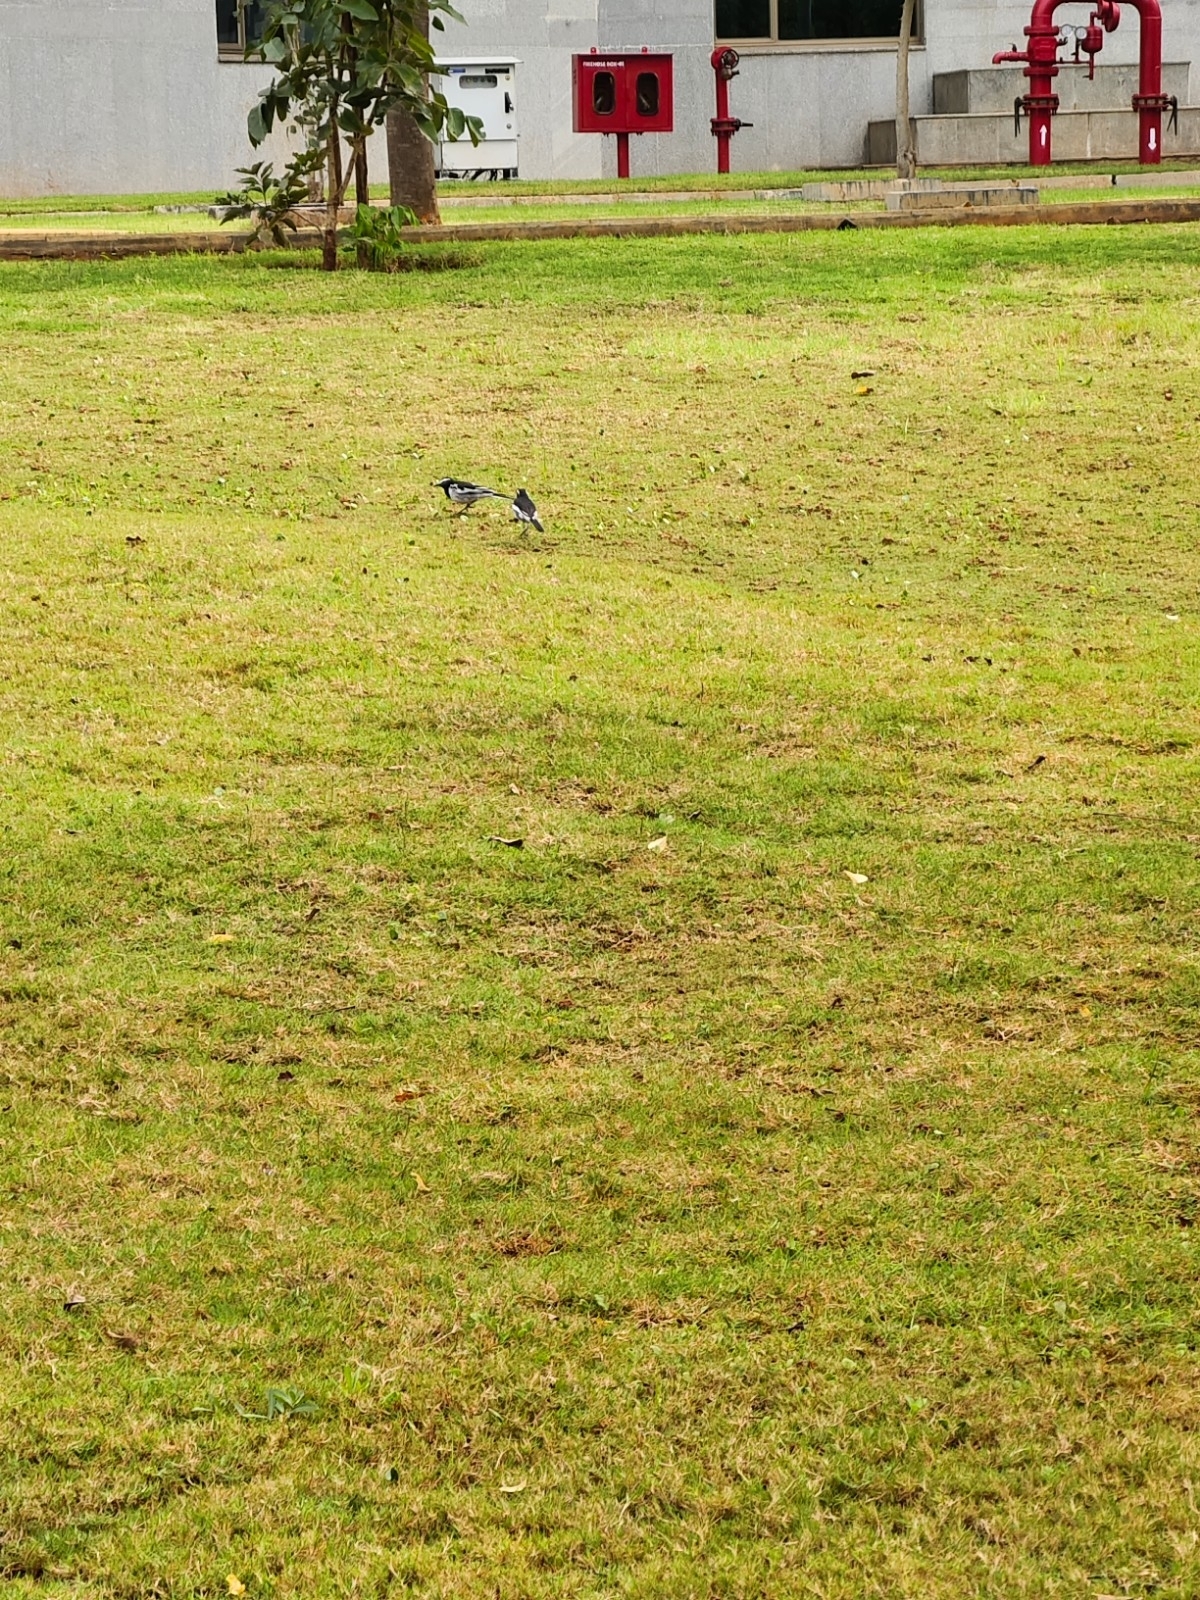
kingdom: Animalia
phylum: Chordata
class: Aves
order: Passeriformes
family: Motacillidae
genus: Motacilla
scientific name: Motacilla maderaspatensis
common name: White-browed wagtail
